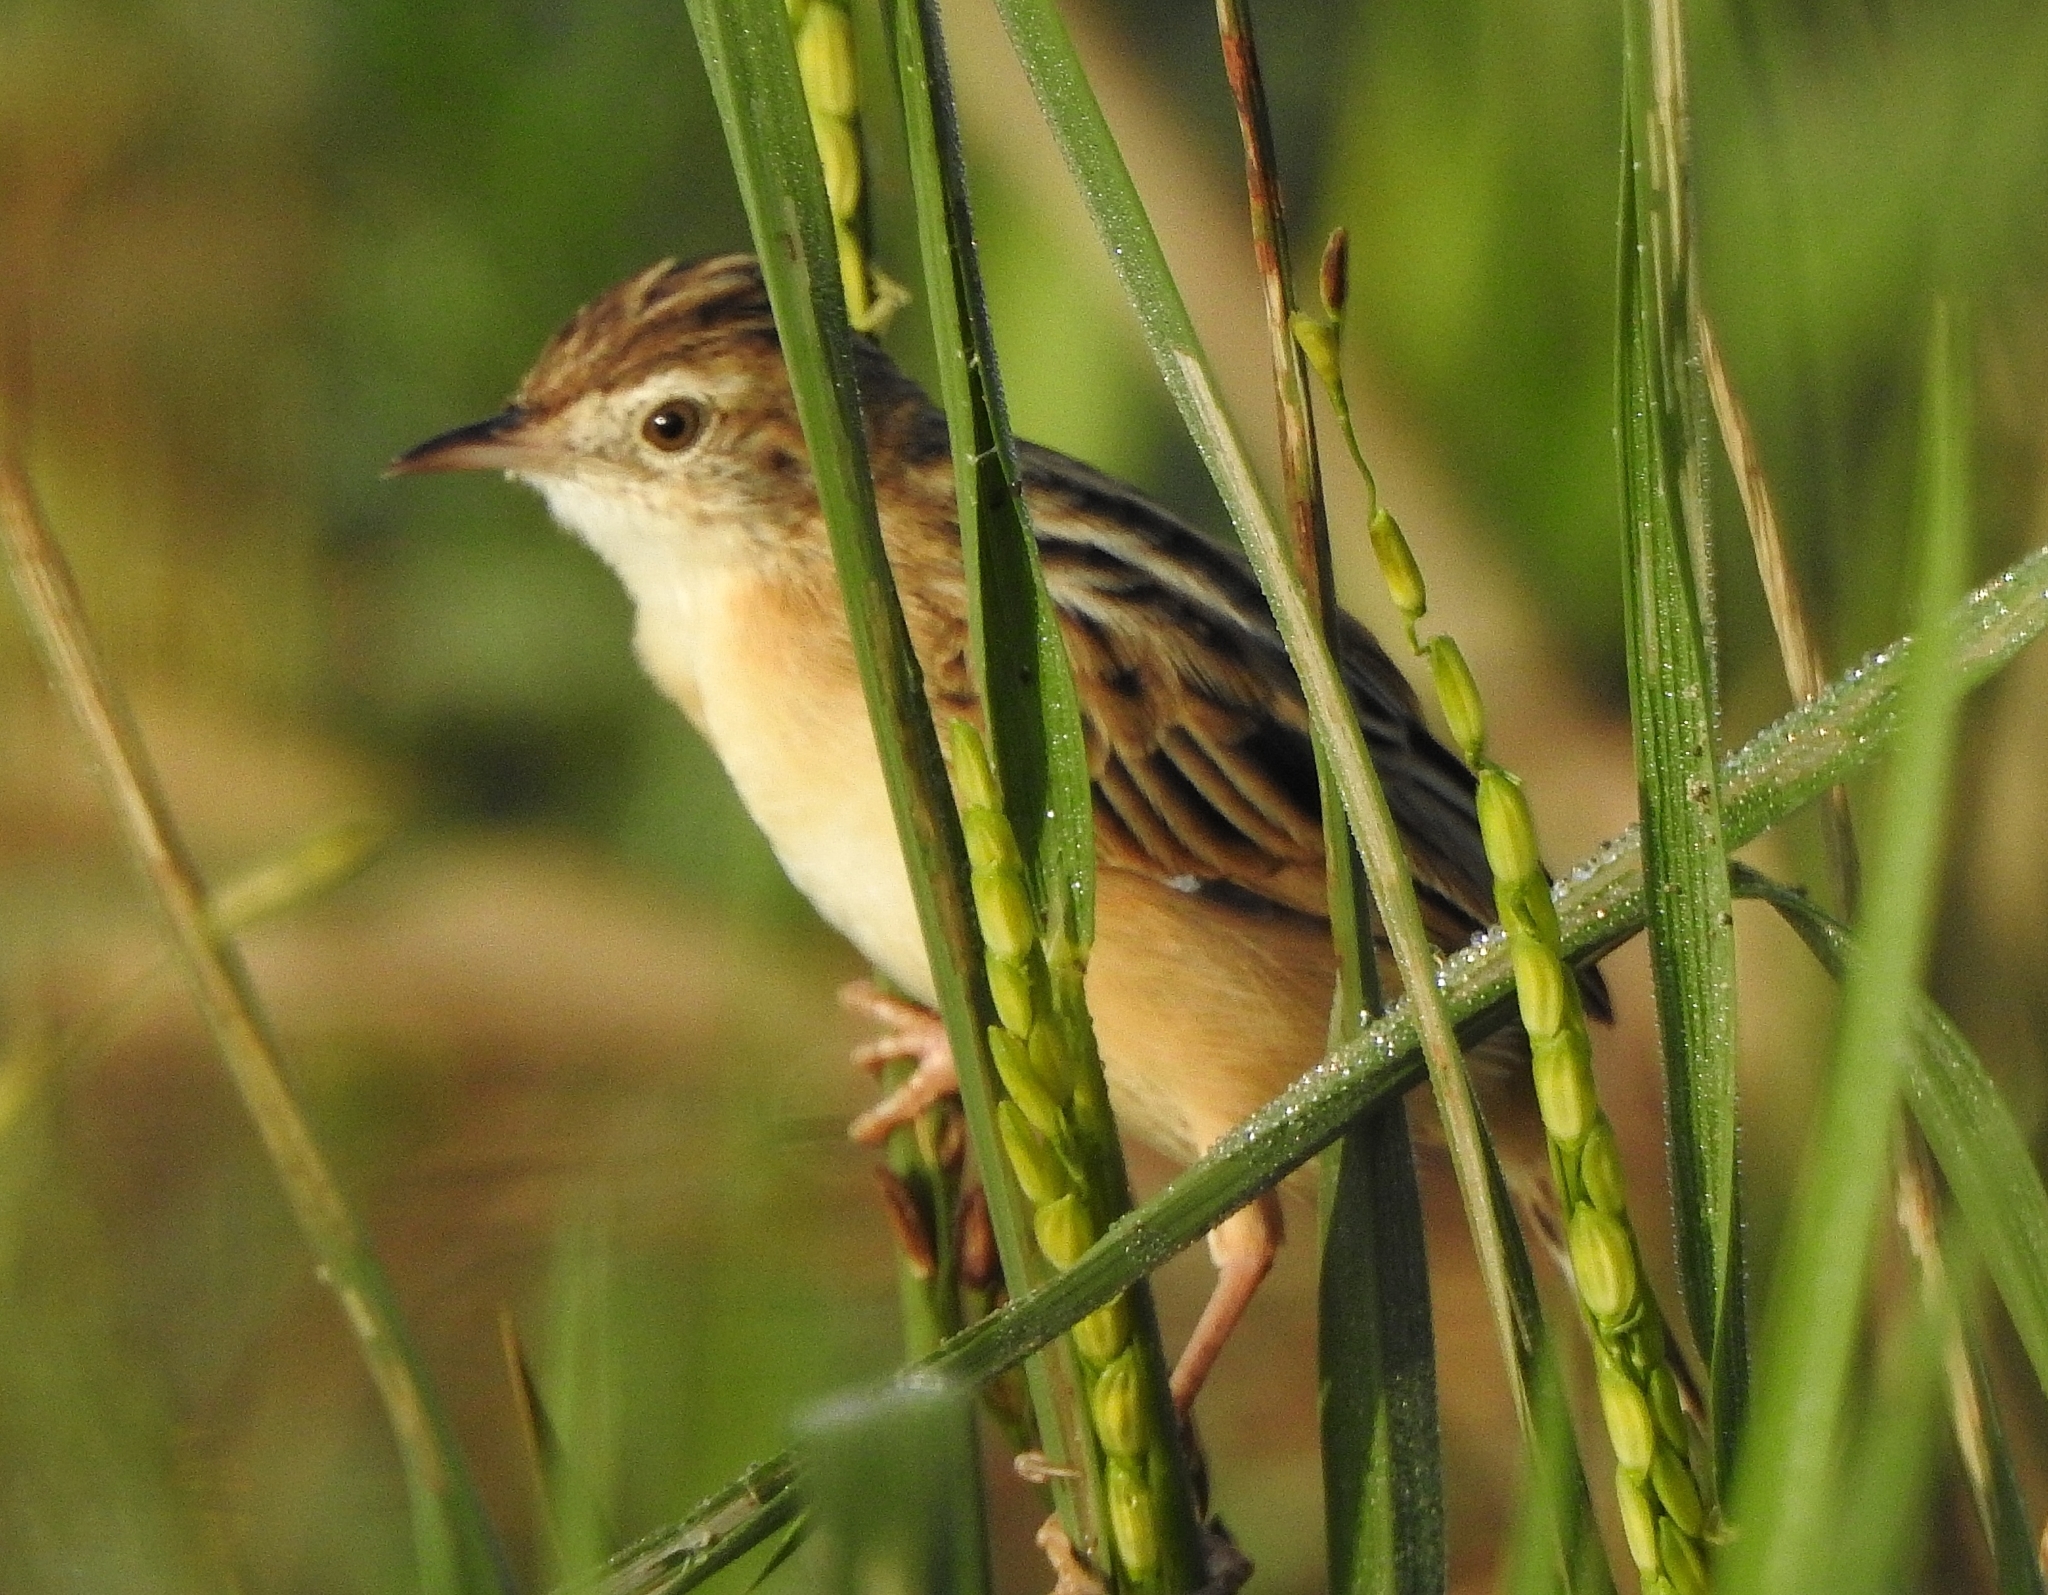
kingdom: Animalia
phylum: Chordata
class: Aves
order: Passeriformes
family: Cisticolidae
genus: Cisticola
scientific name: Cisticola juncidis
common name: Zitting cisticola
